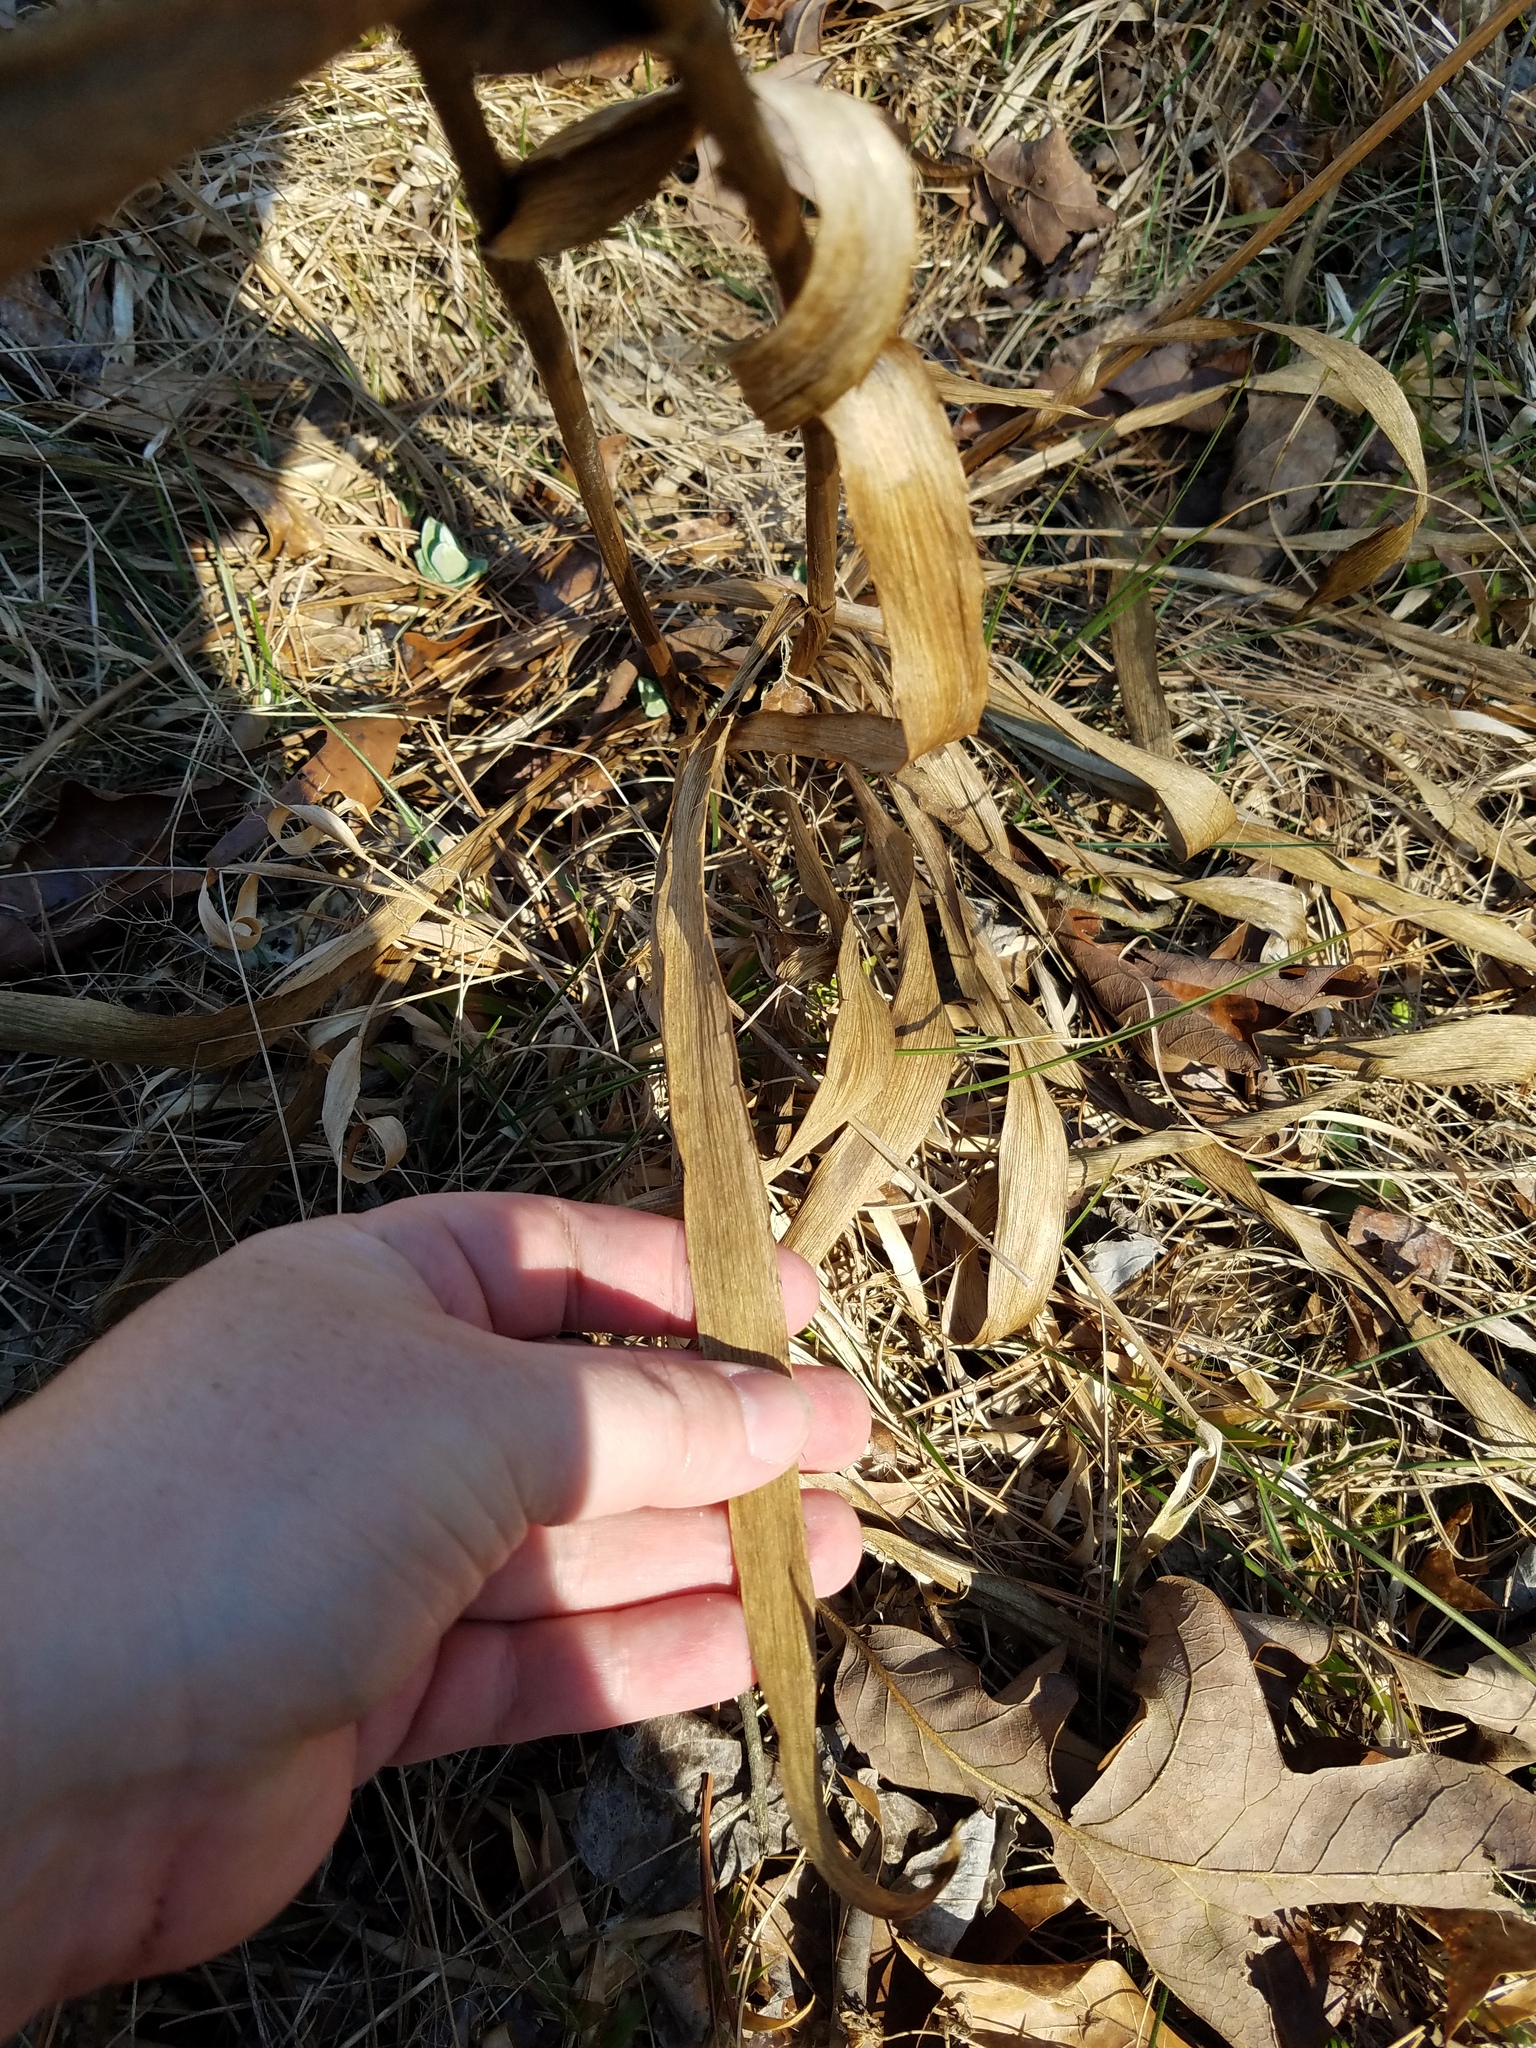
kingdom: Plantae
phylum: Tracheophyta
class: Magnoliopsida
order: Apiales
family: Apiaceae
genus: Eryngium
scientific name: Eryngium yuccifolium
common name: Button eryngo
